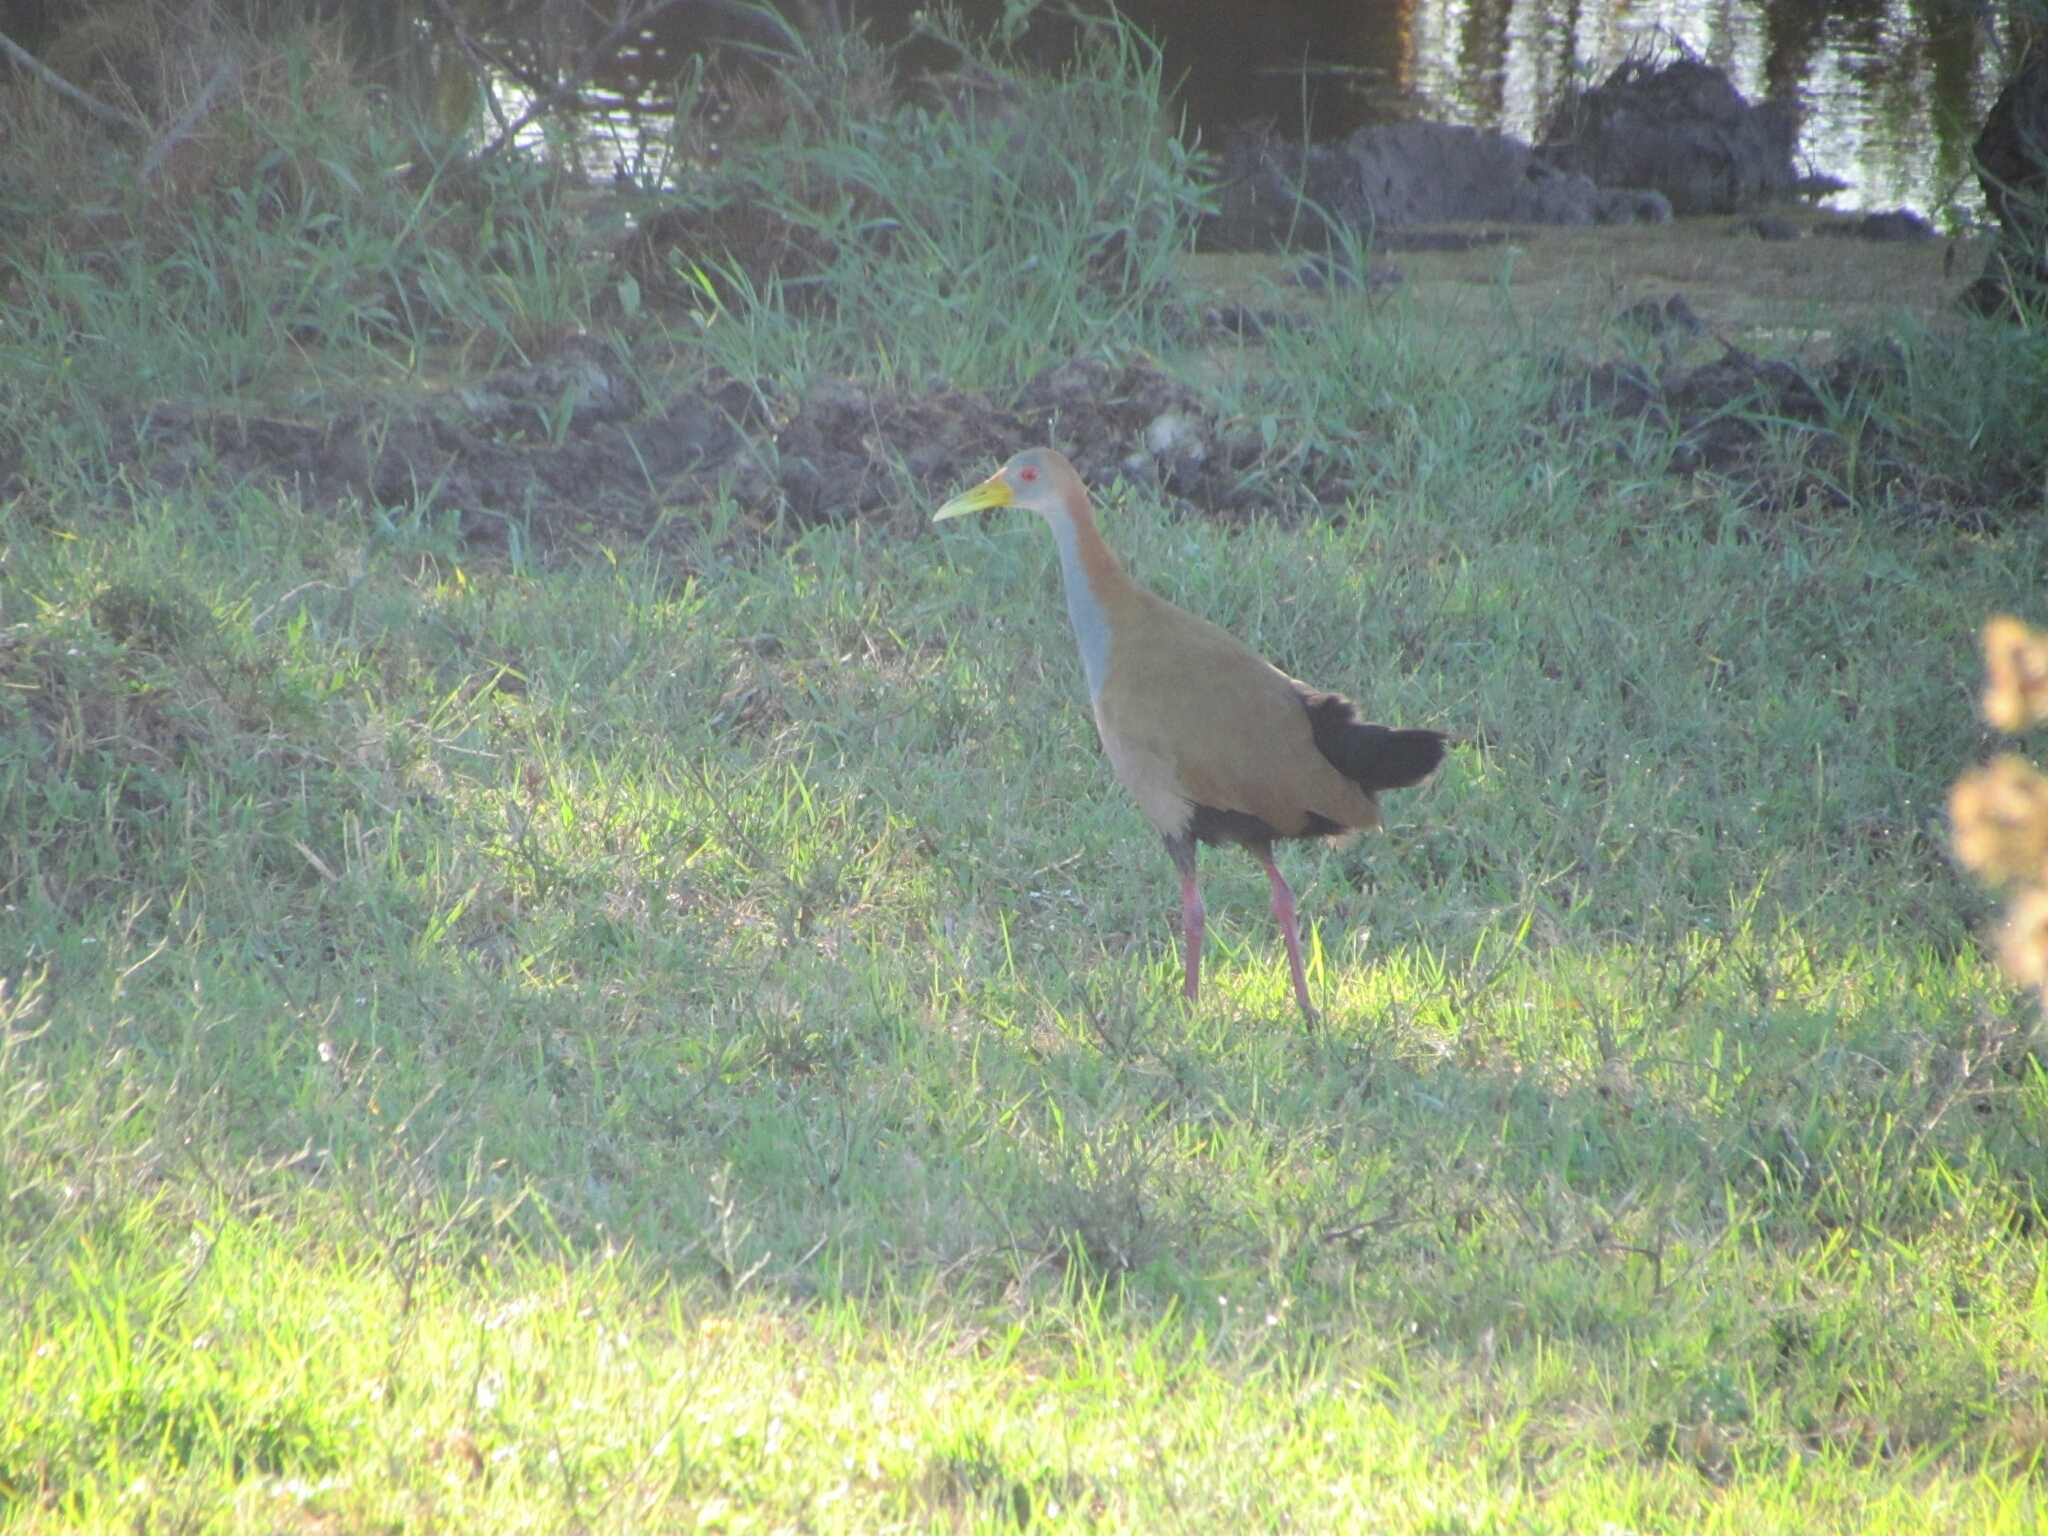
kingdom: Animalia
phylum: Chordata
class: Aves
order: Gruiformes
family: Rallidae
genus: Aramides
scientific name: Aramides ypecaha
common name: Giant wood rail
